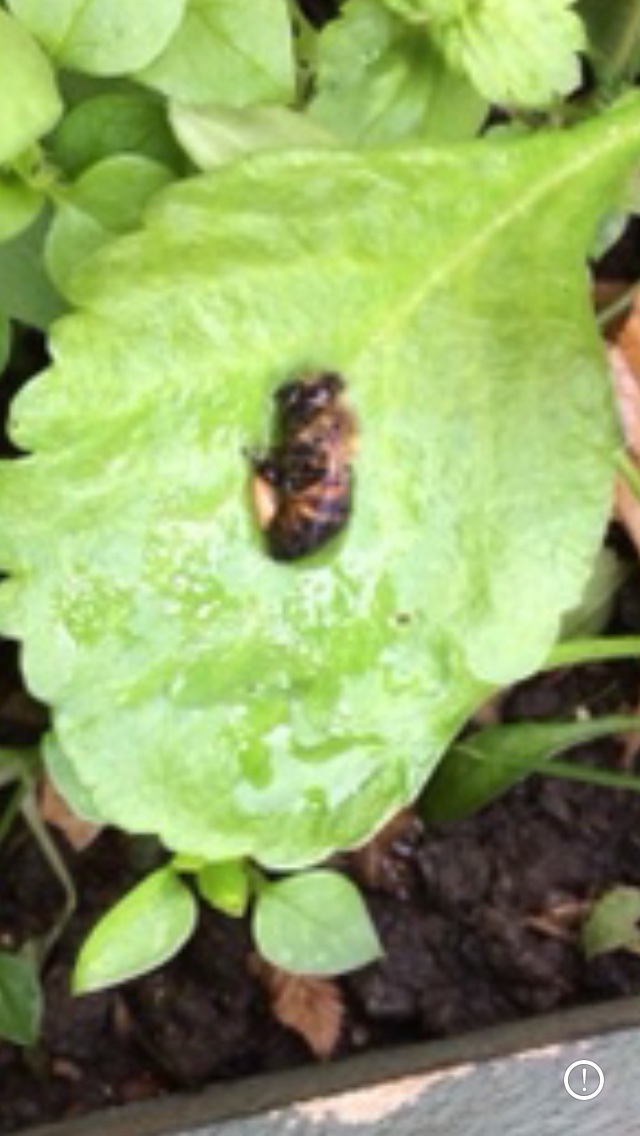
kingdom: Animalia
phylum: Arthropoda
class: Insecta
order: Hymenoptera
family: Apidae
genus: Apis
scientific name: Apis mellifera
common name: Honey bee
